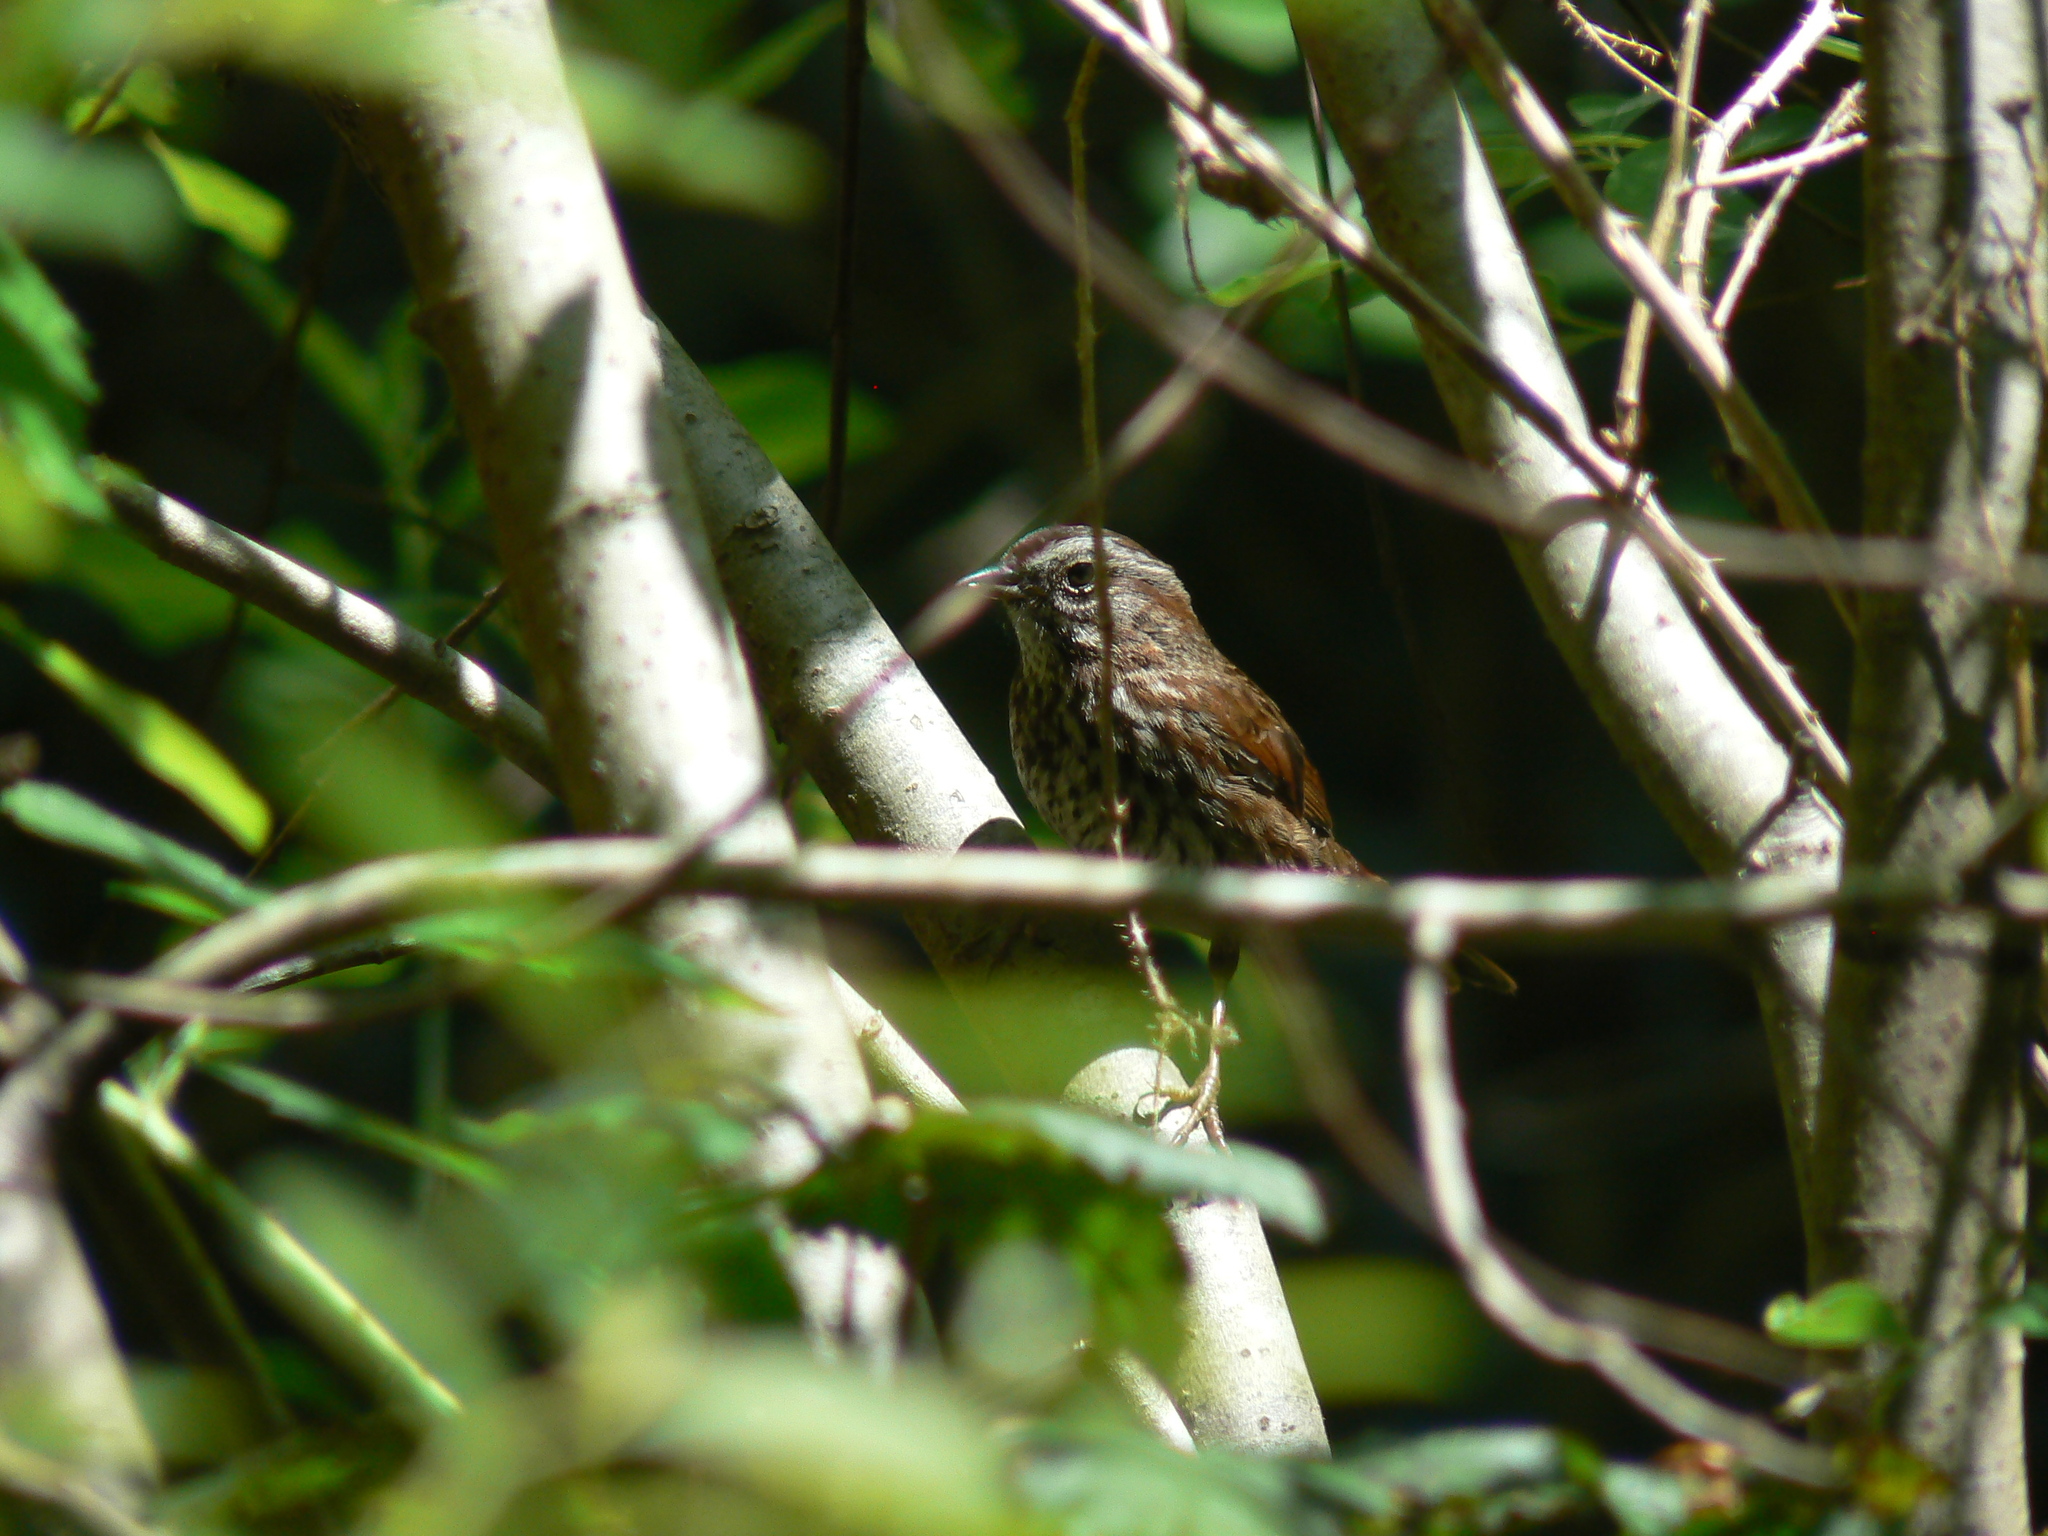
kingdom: Animalia
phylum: Chordata
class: Aves
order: Passeriformes
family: Passerellidae
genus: Melospiza
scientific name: Melospiza melodia
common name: Song sparrow
